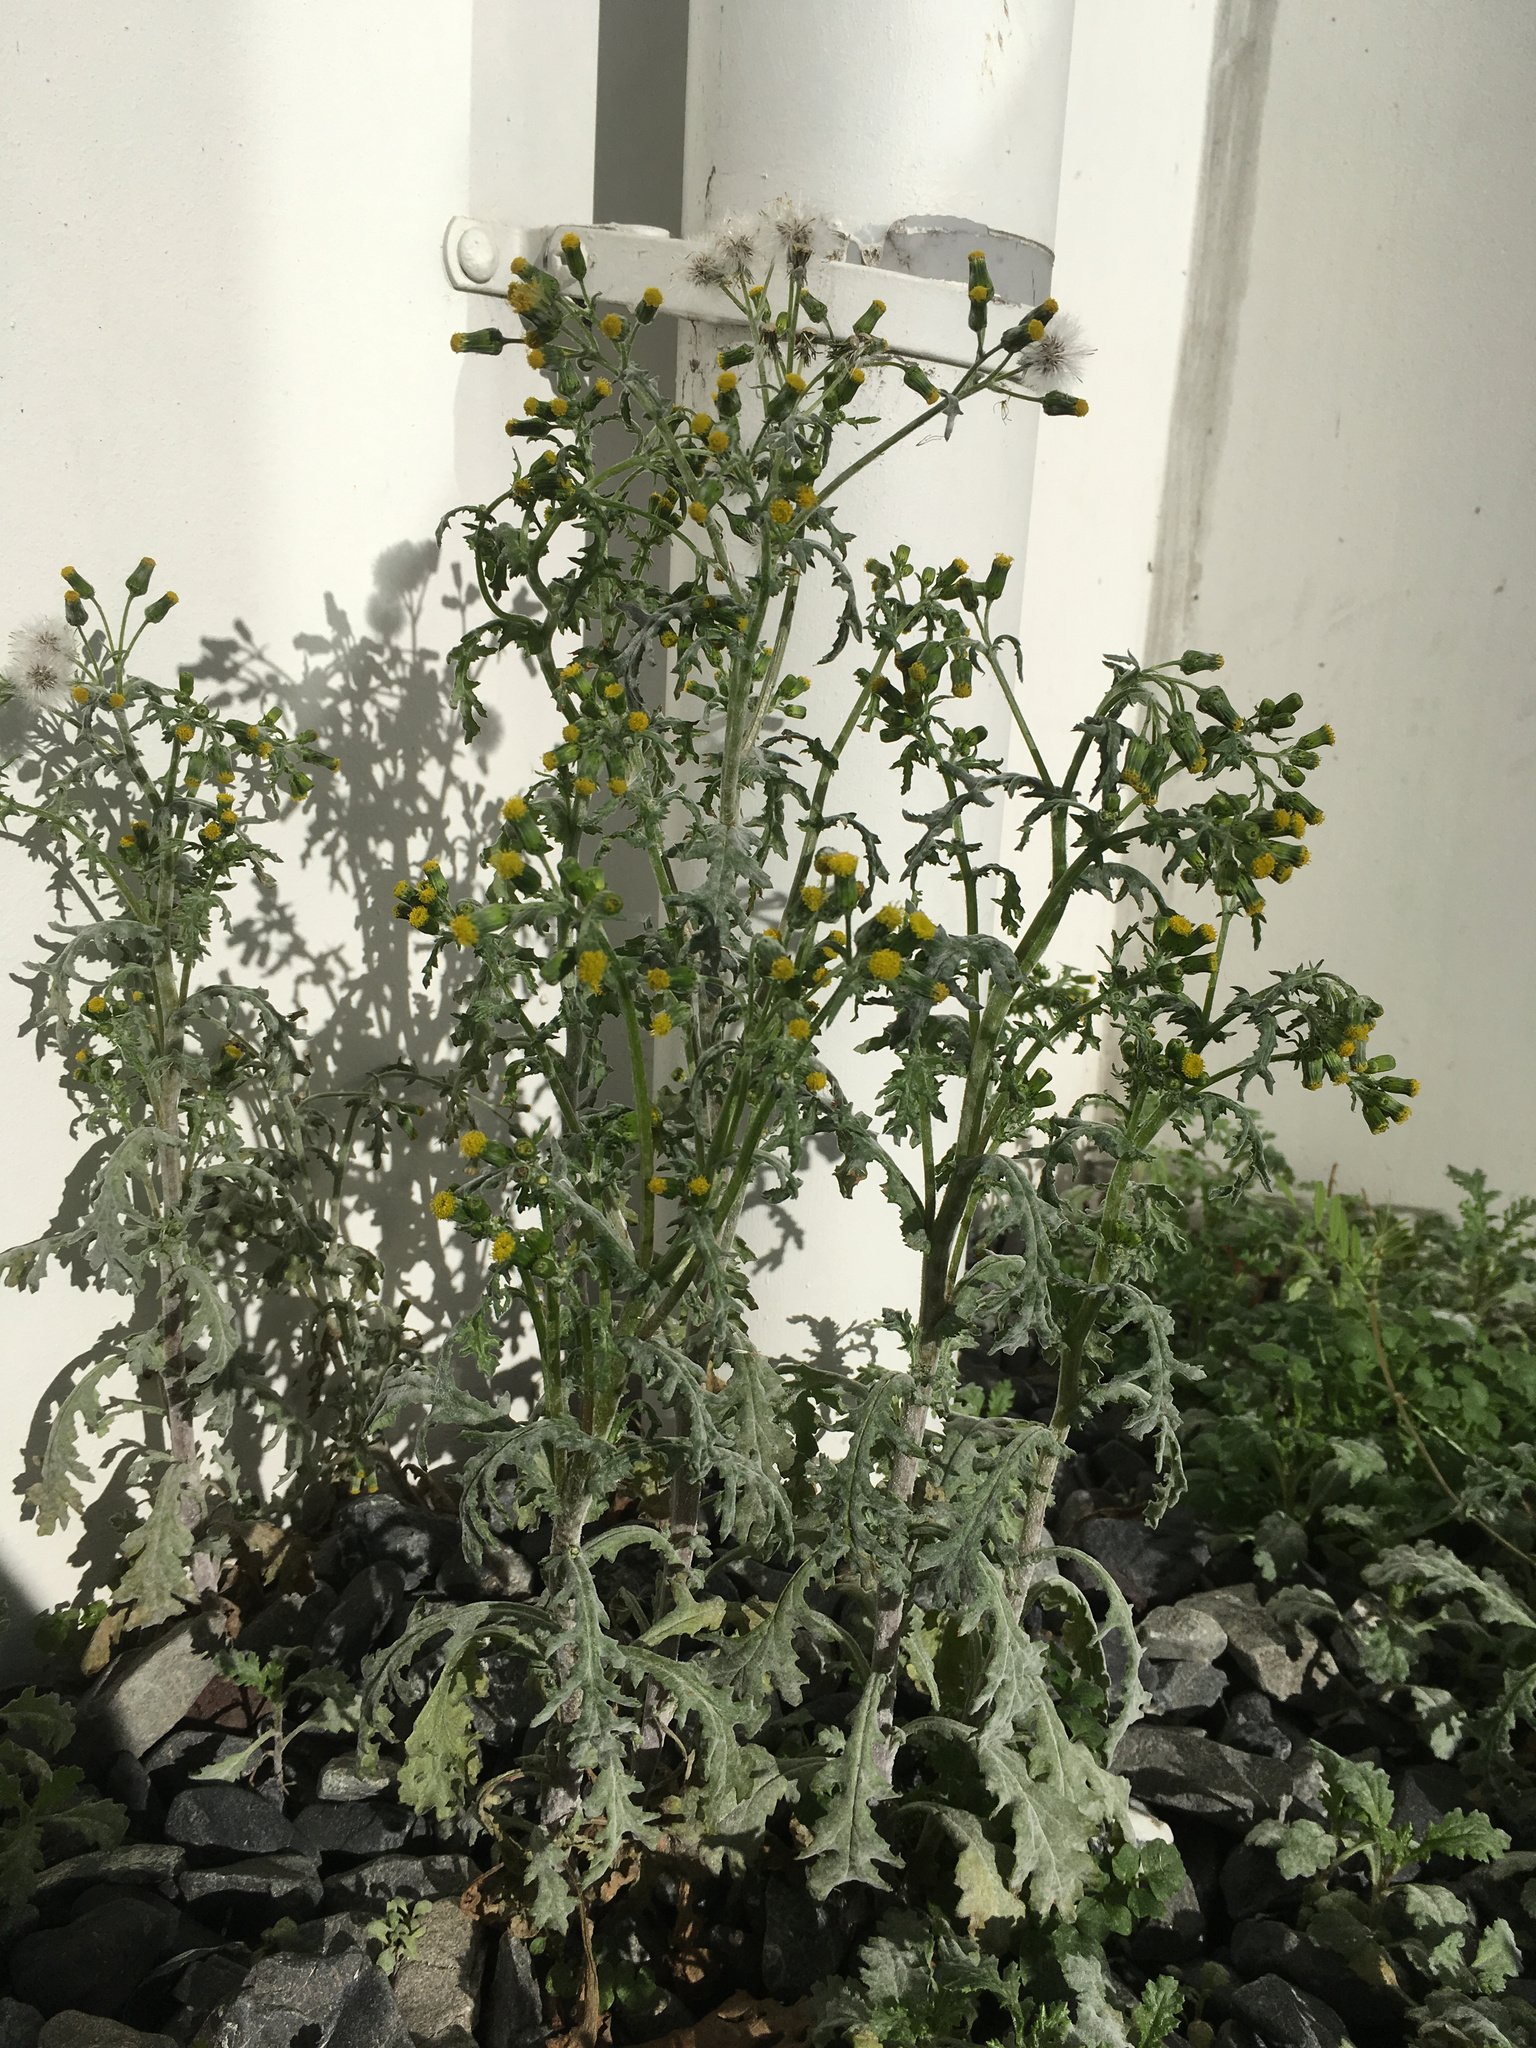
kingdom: Plantae
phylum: Tracheophyta
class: Magnoliopsida
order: Asterales
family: Asteraceae
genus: Senecio
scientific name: Senecio vulgaris
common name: Old-man-in-the-spring
